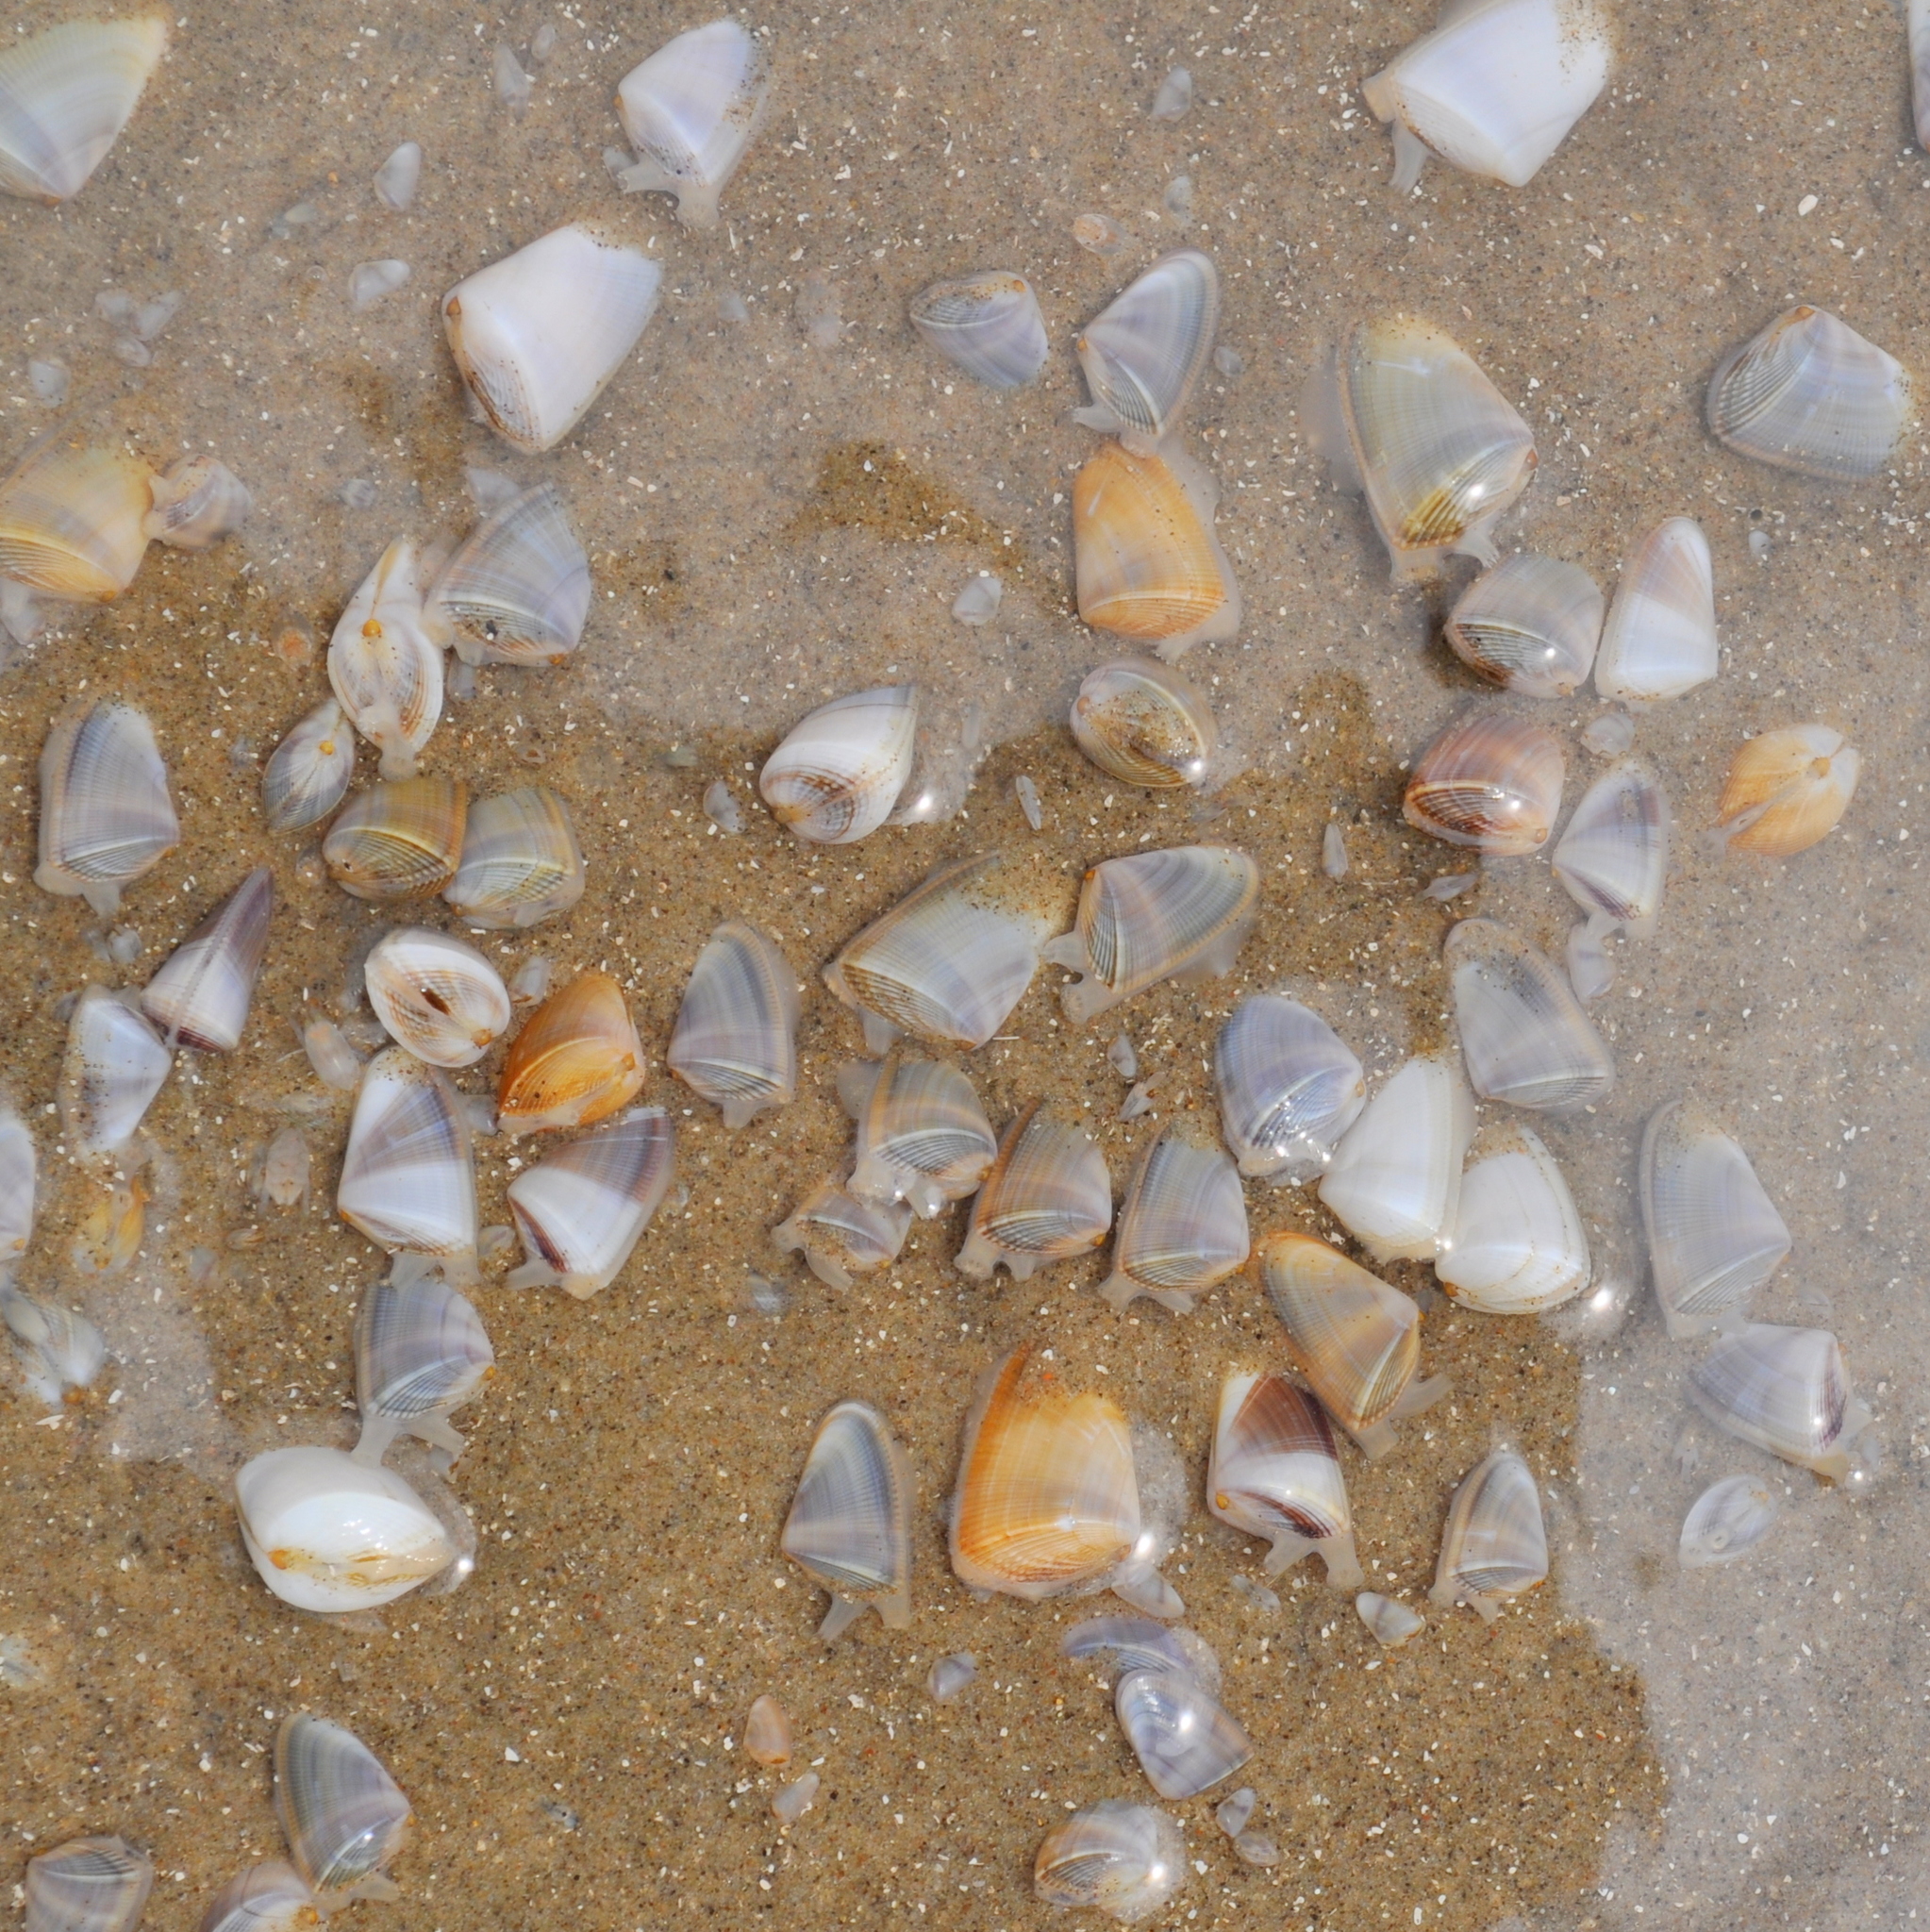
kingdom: Animalia
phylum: Mollusca
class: Bivalvia
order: Cardiida
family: Donacidae
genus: Donax
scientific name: Donax hanleyanus
